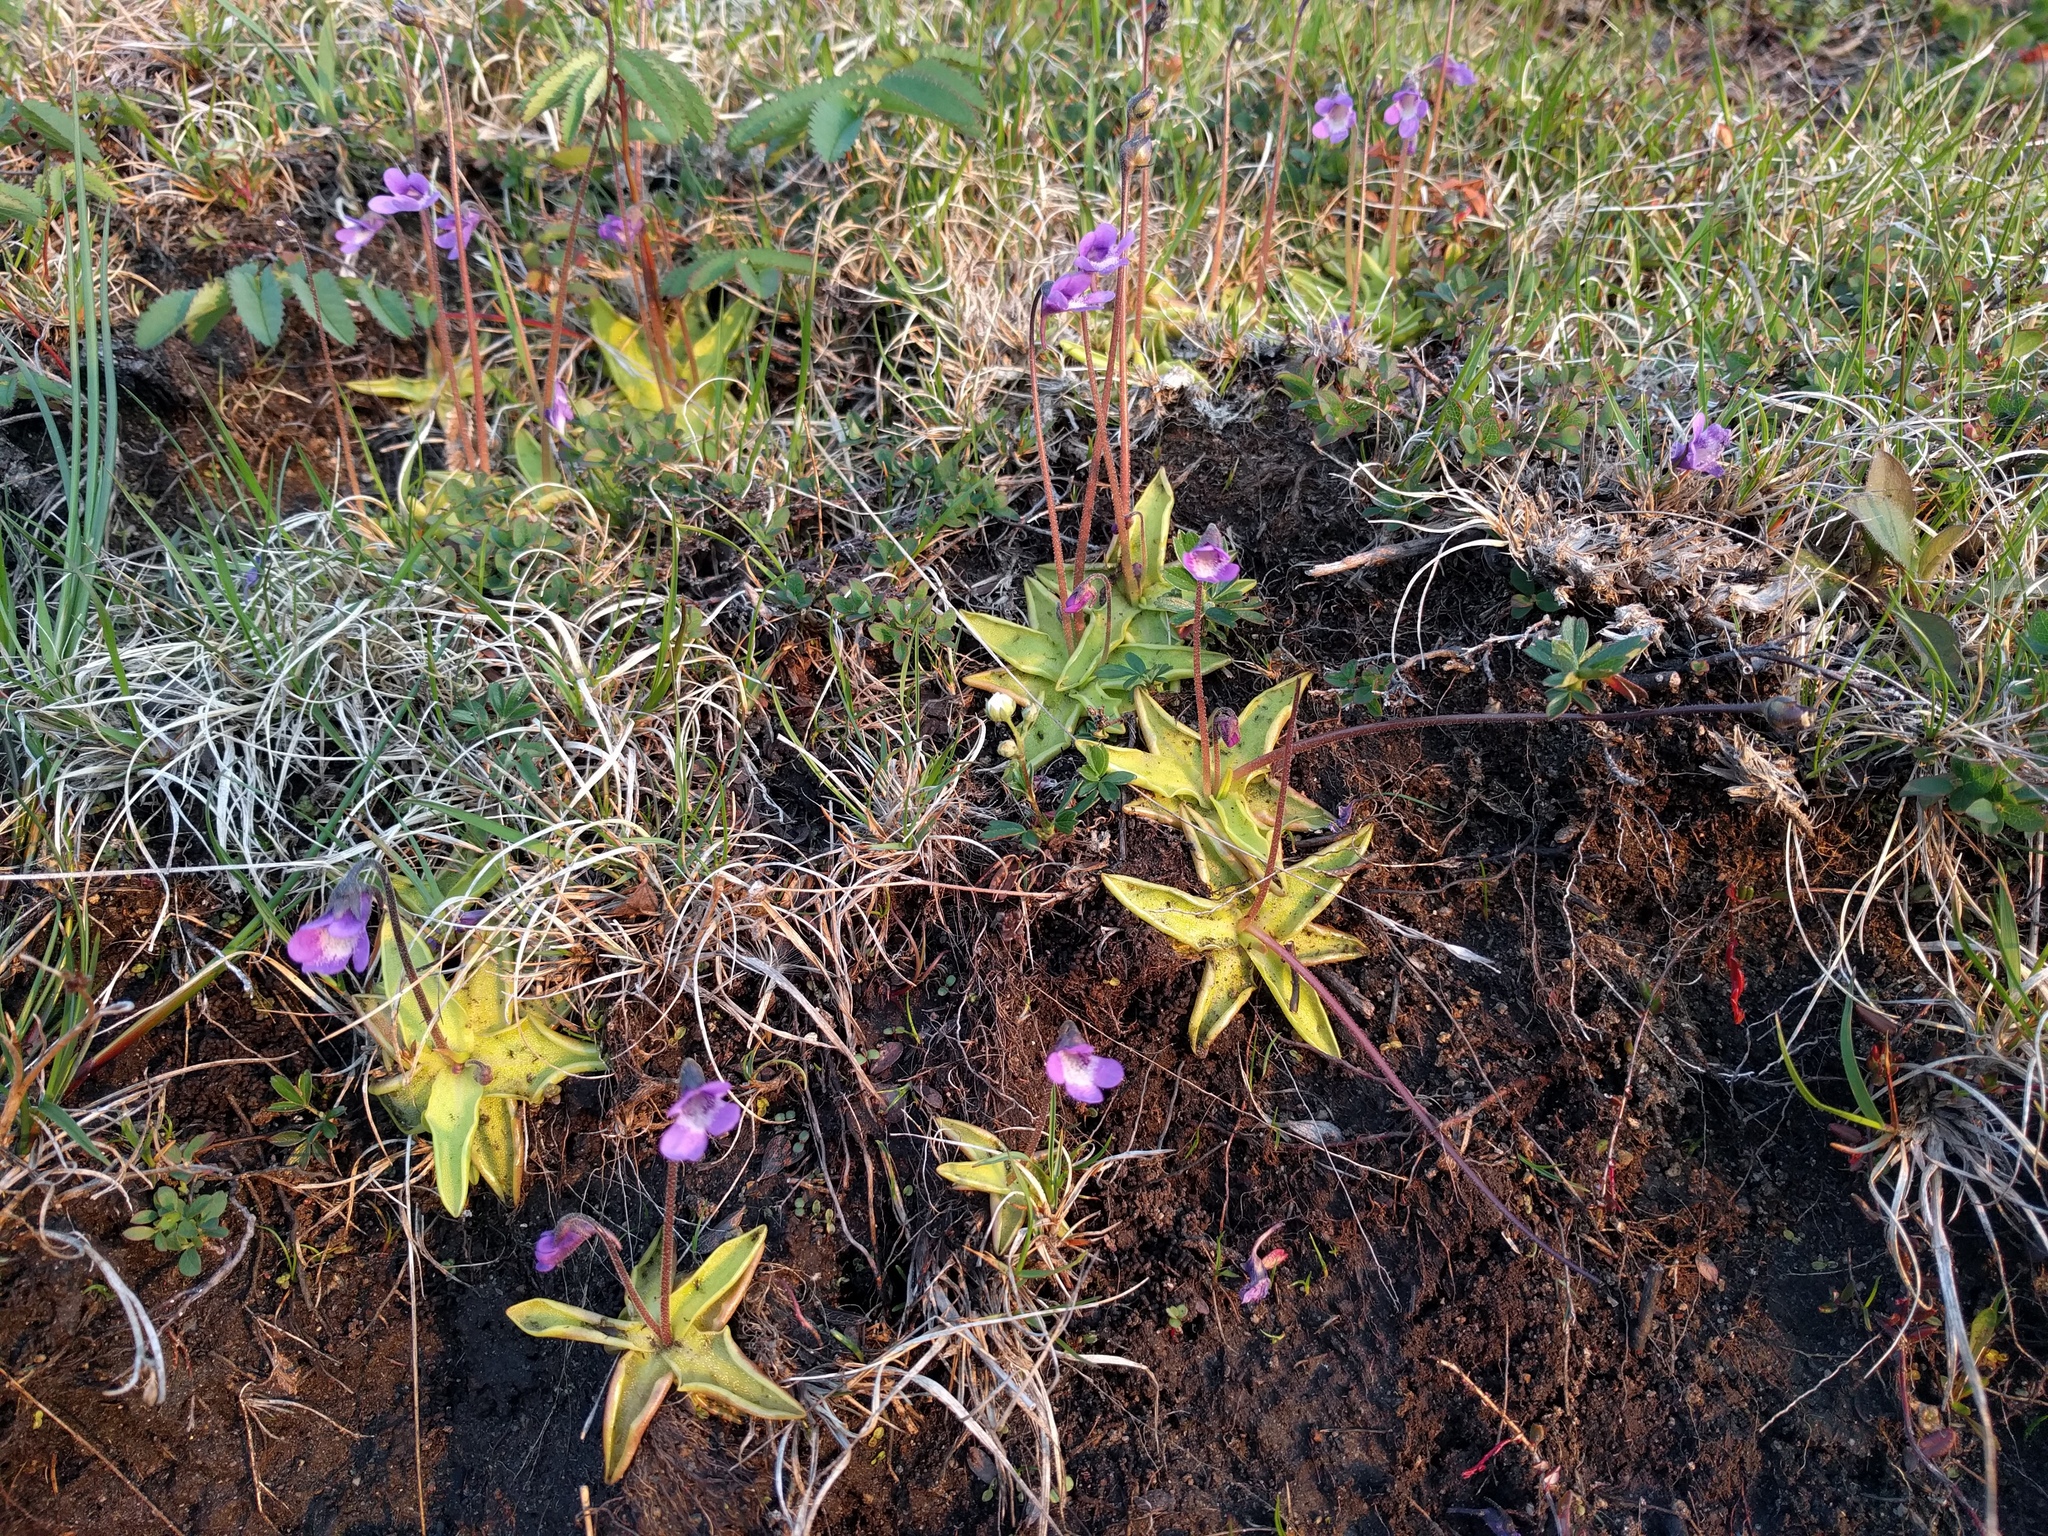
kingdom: Plantae
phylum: Tracheophyta
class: Magnoliopsida
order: Lamiales
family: Lentibulariaceae
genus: Pinguicula
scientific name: Pinguicula vulgaris
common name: Common butterwort
